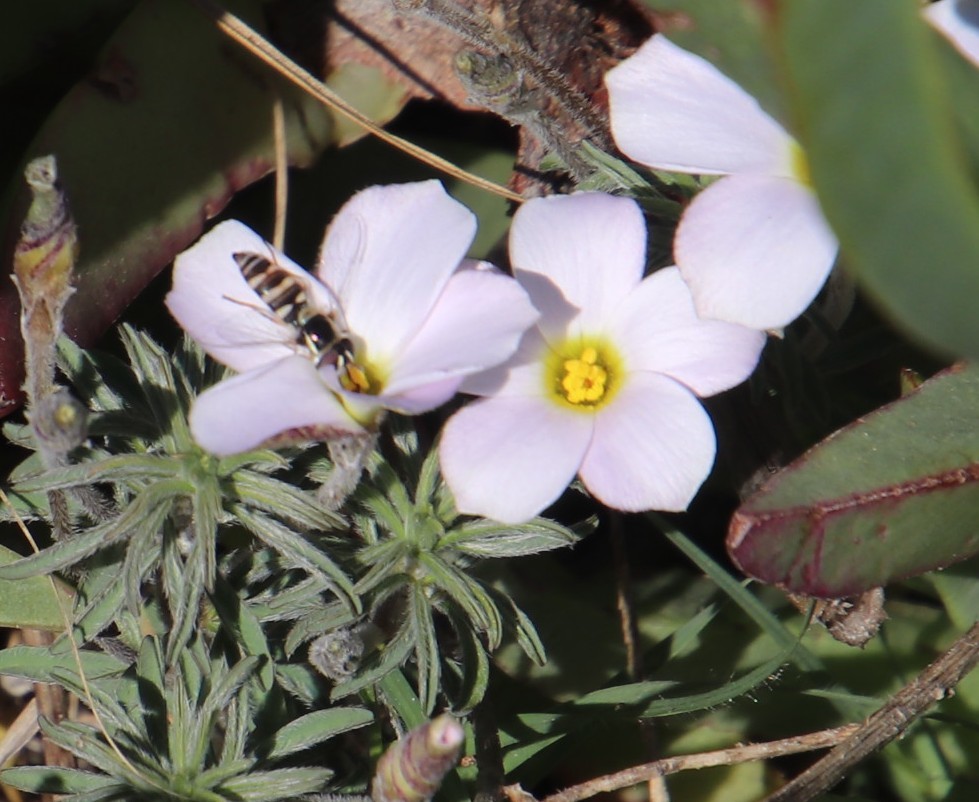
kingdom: Plantae
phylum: Tracheophyta
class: Magnoliopsida
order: Oxalidales
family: Oxalidaceae
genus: Oxalis
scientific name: Oxalis hirta
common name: Tropical woodsorrel
